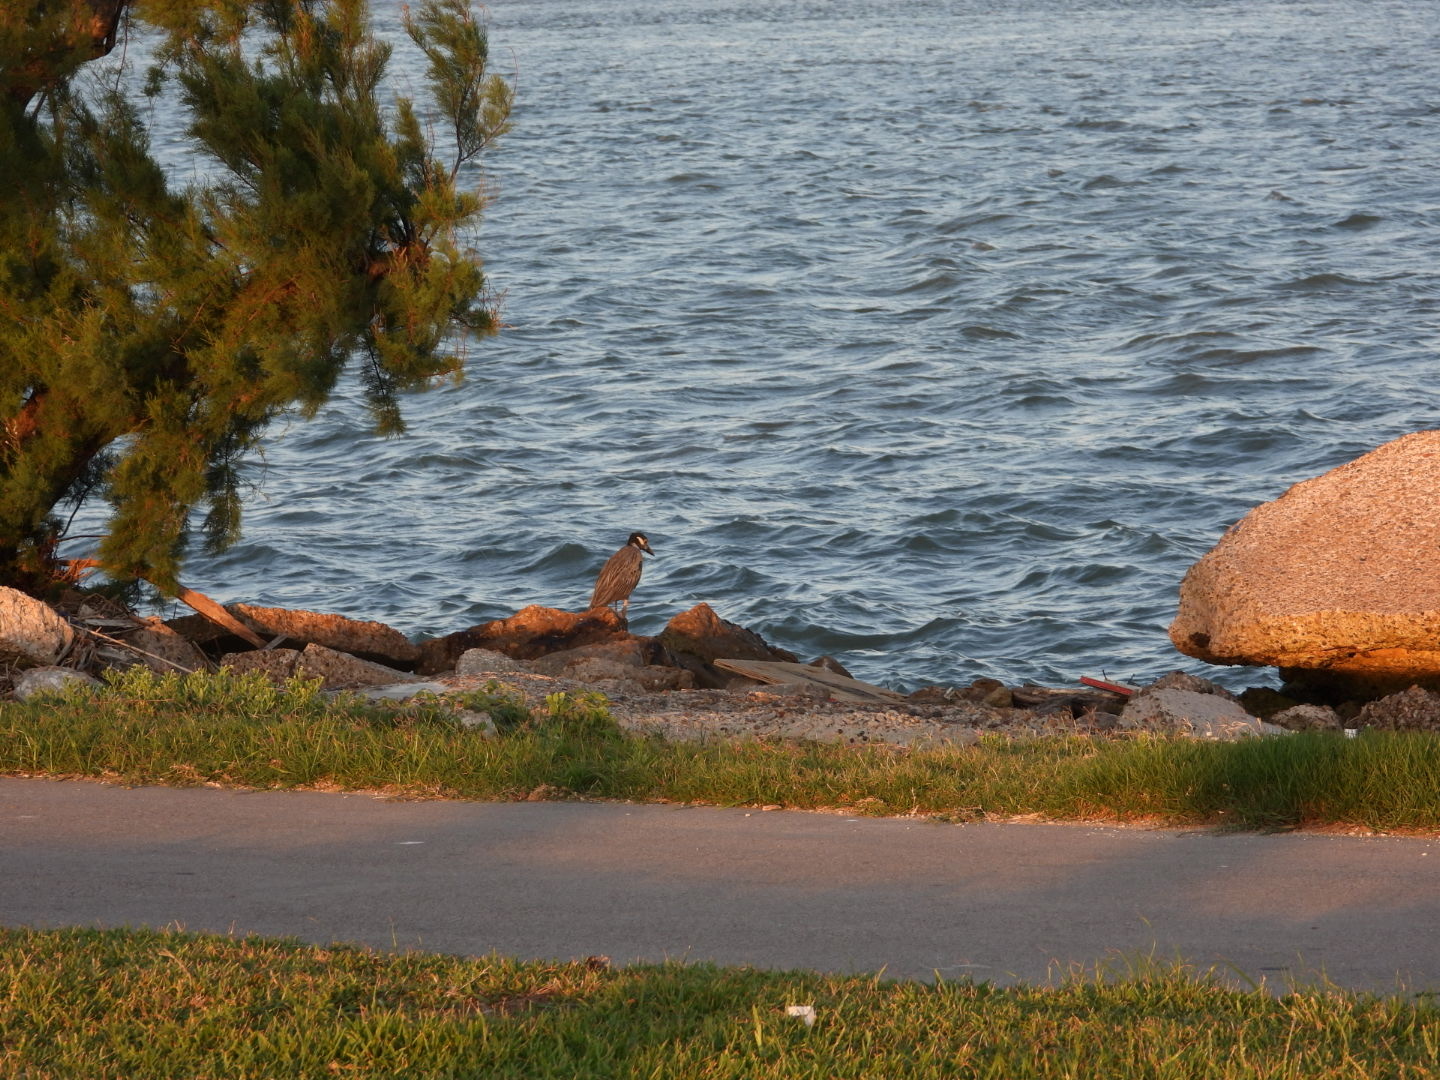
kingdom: Animalia
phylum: Chordata
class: Aves
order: Pelecaniformes
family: Ardeidae
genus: Nyctanassa
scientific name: Nyctanassa violacea
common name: Yellow-crowned night heron
